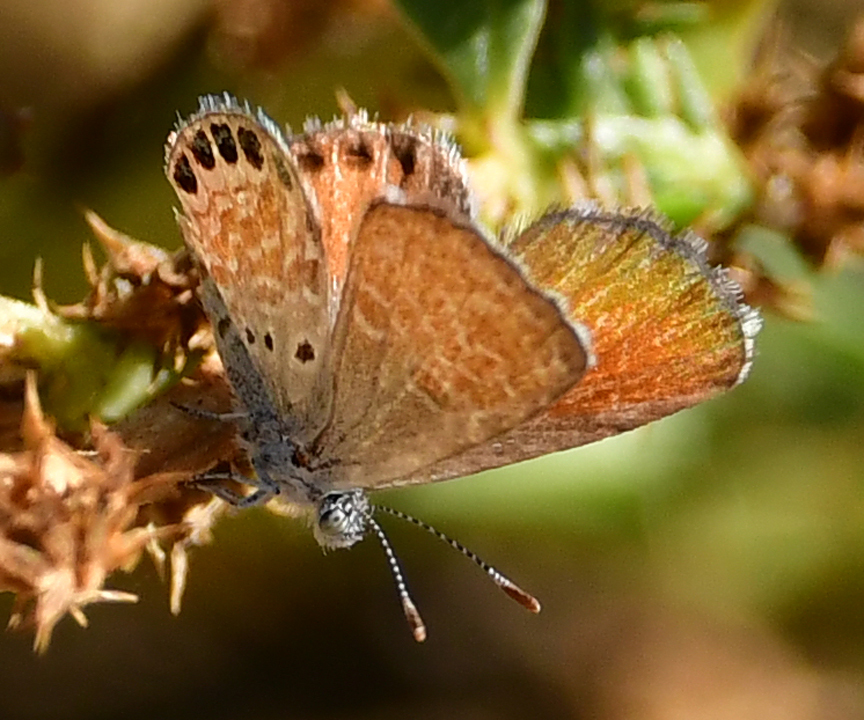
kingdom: Animalia
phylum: Arthropoda
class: Insecta
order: Lepidoptera
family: Lycaenidae
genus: Brephidium
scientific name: Brephidium exilis
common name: Pygmy blue
